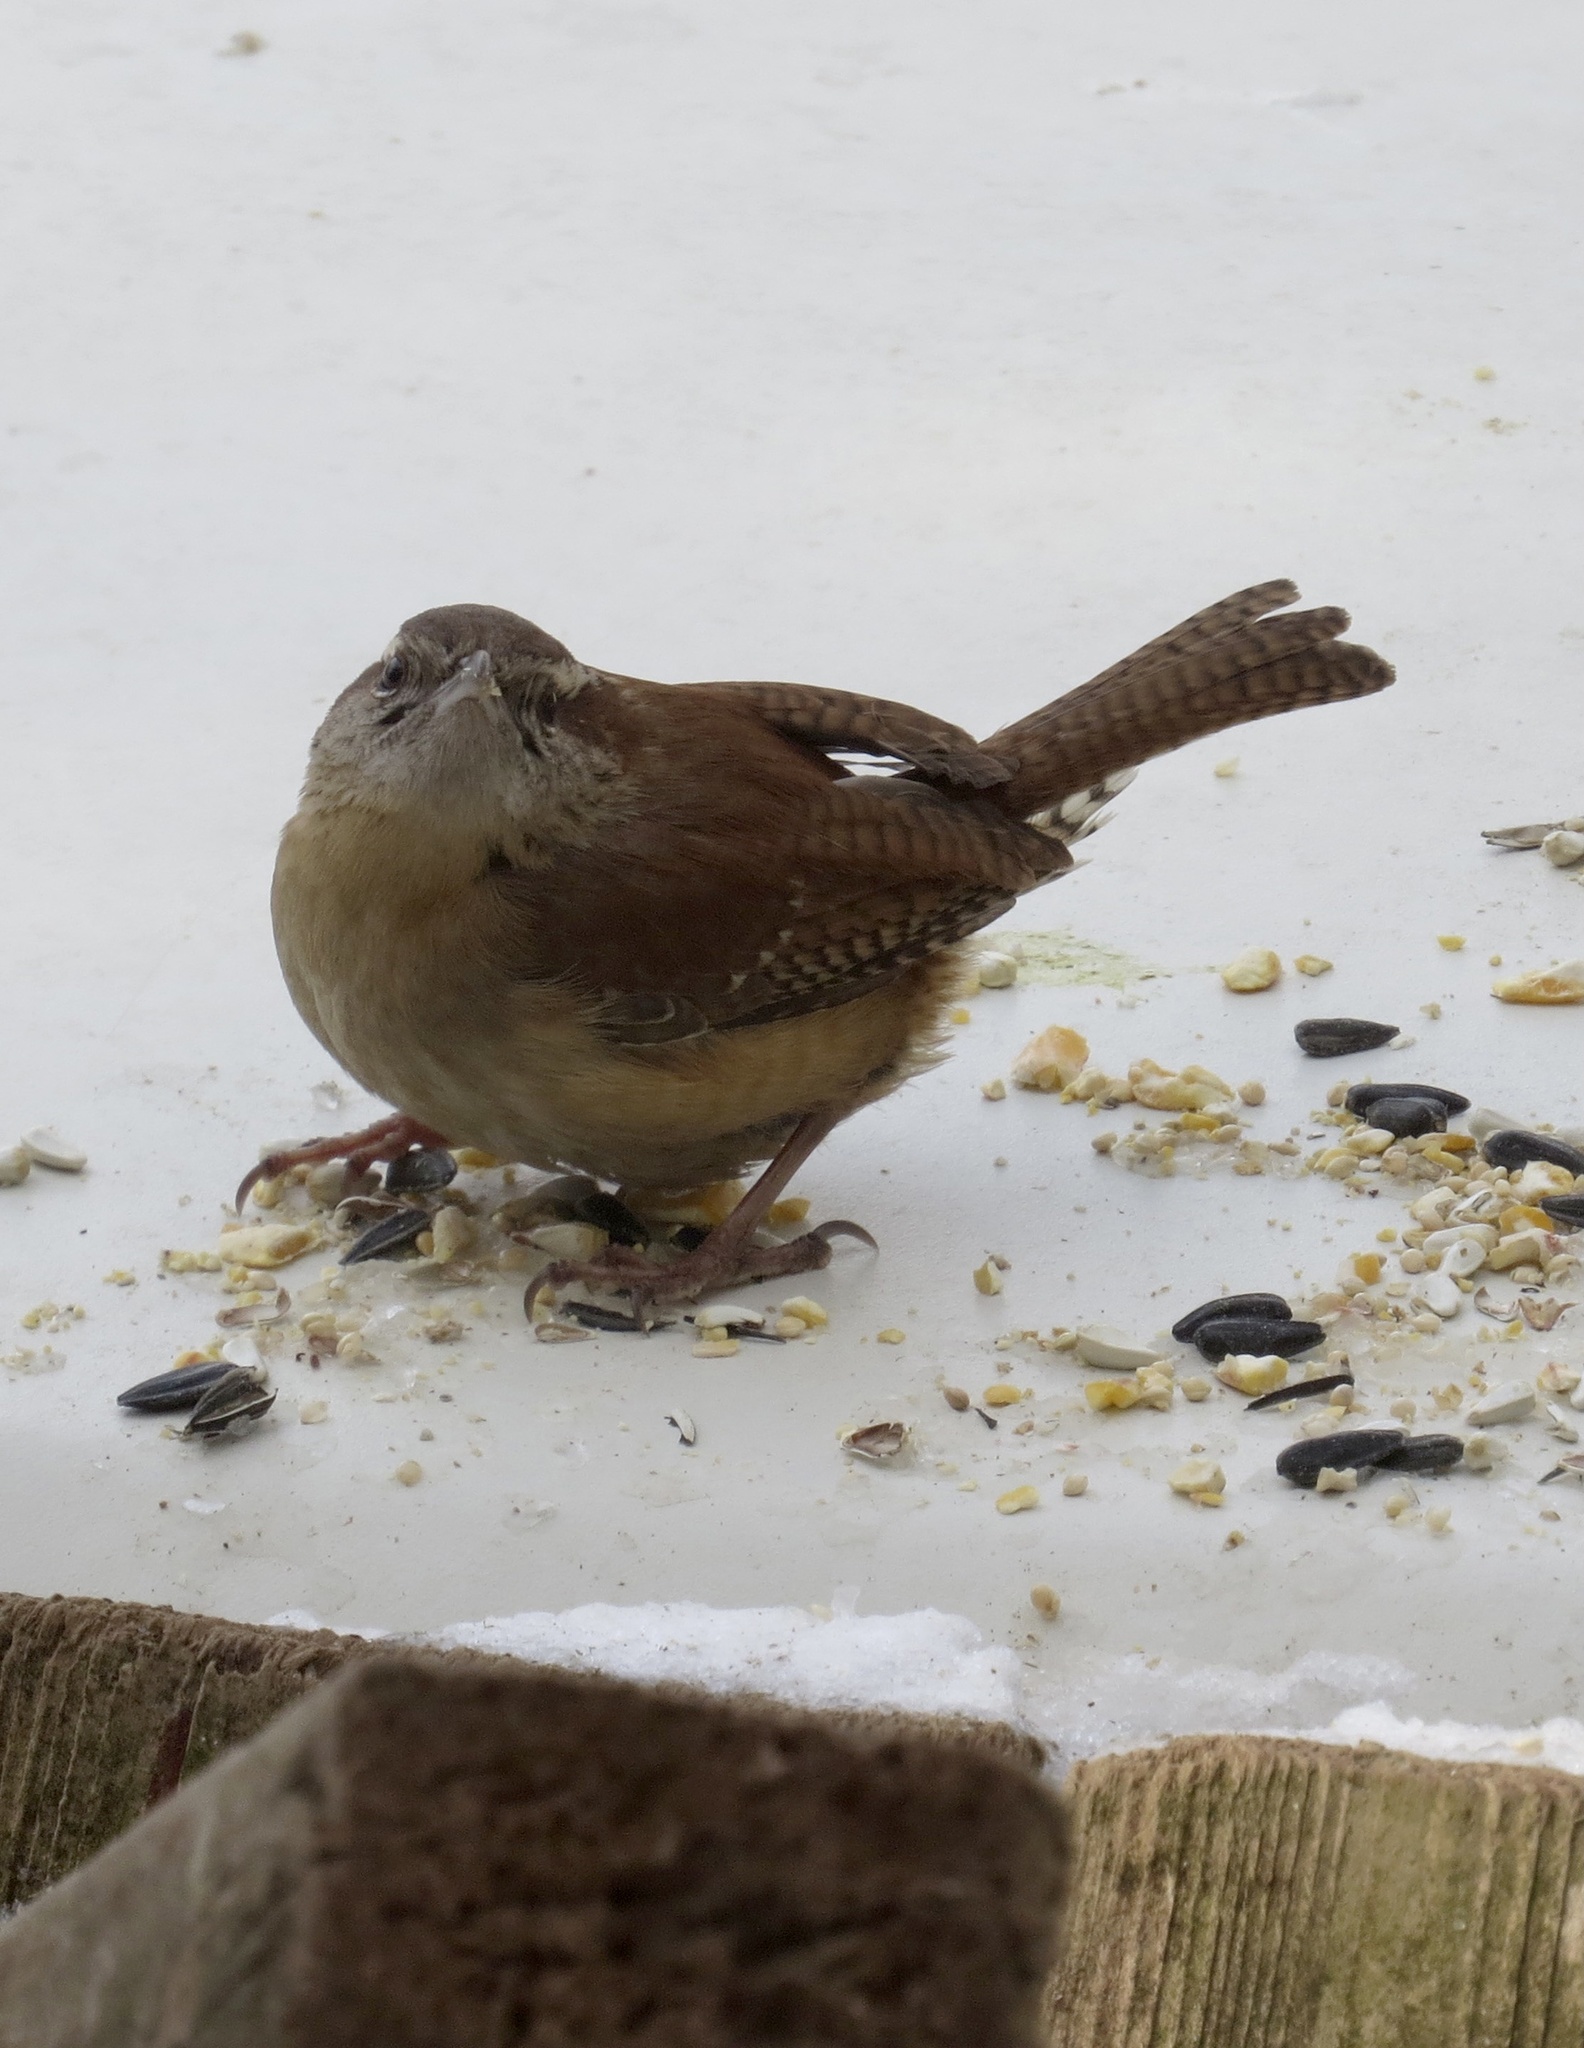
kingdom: Animalia
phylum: Chordata
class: Aves
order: Passeriformes
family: Troglodytidae
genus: Thryothorus
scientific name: Thryothorus ludovicianus
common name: Carolina wren
